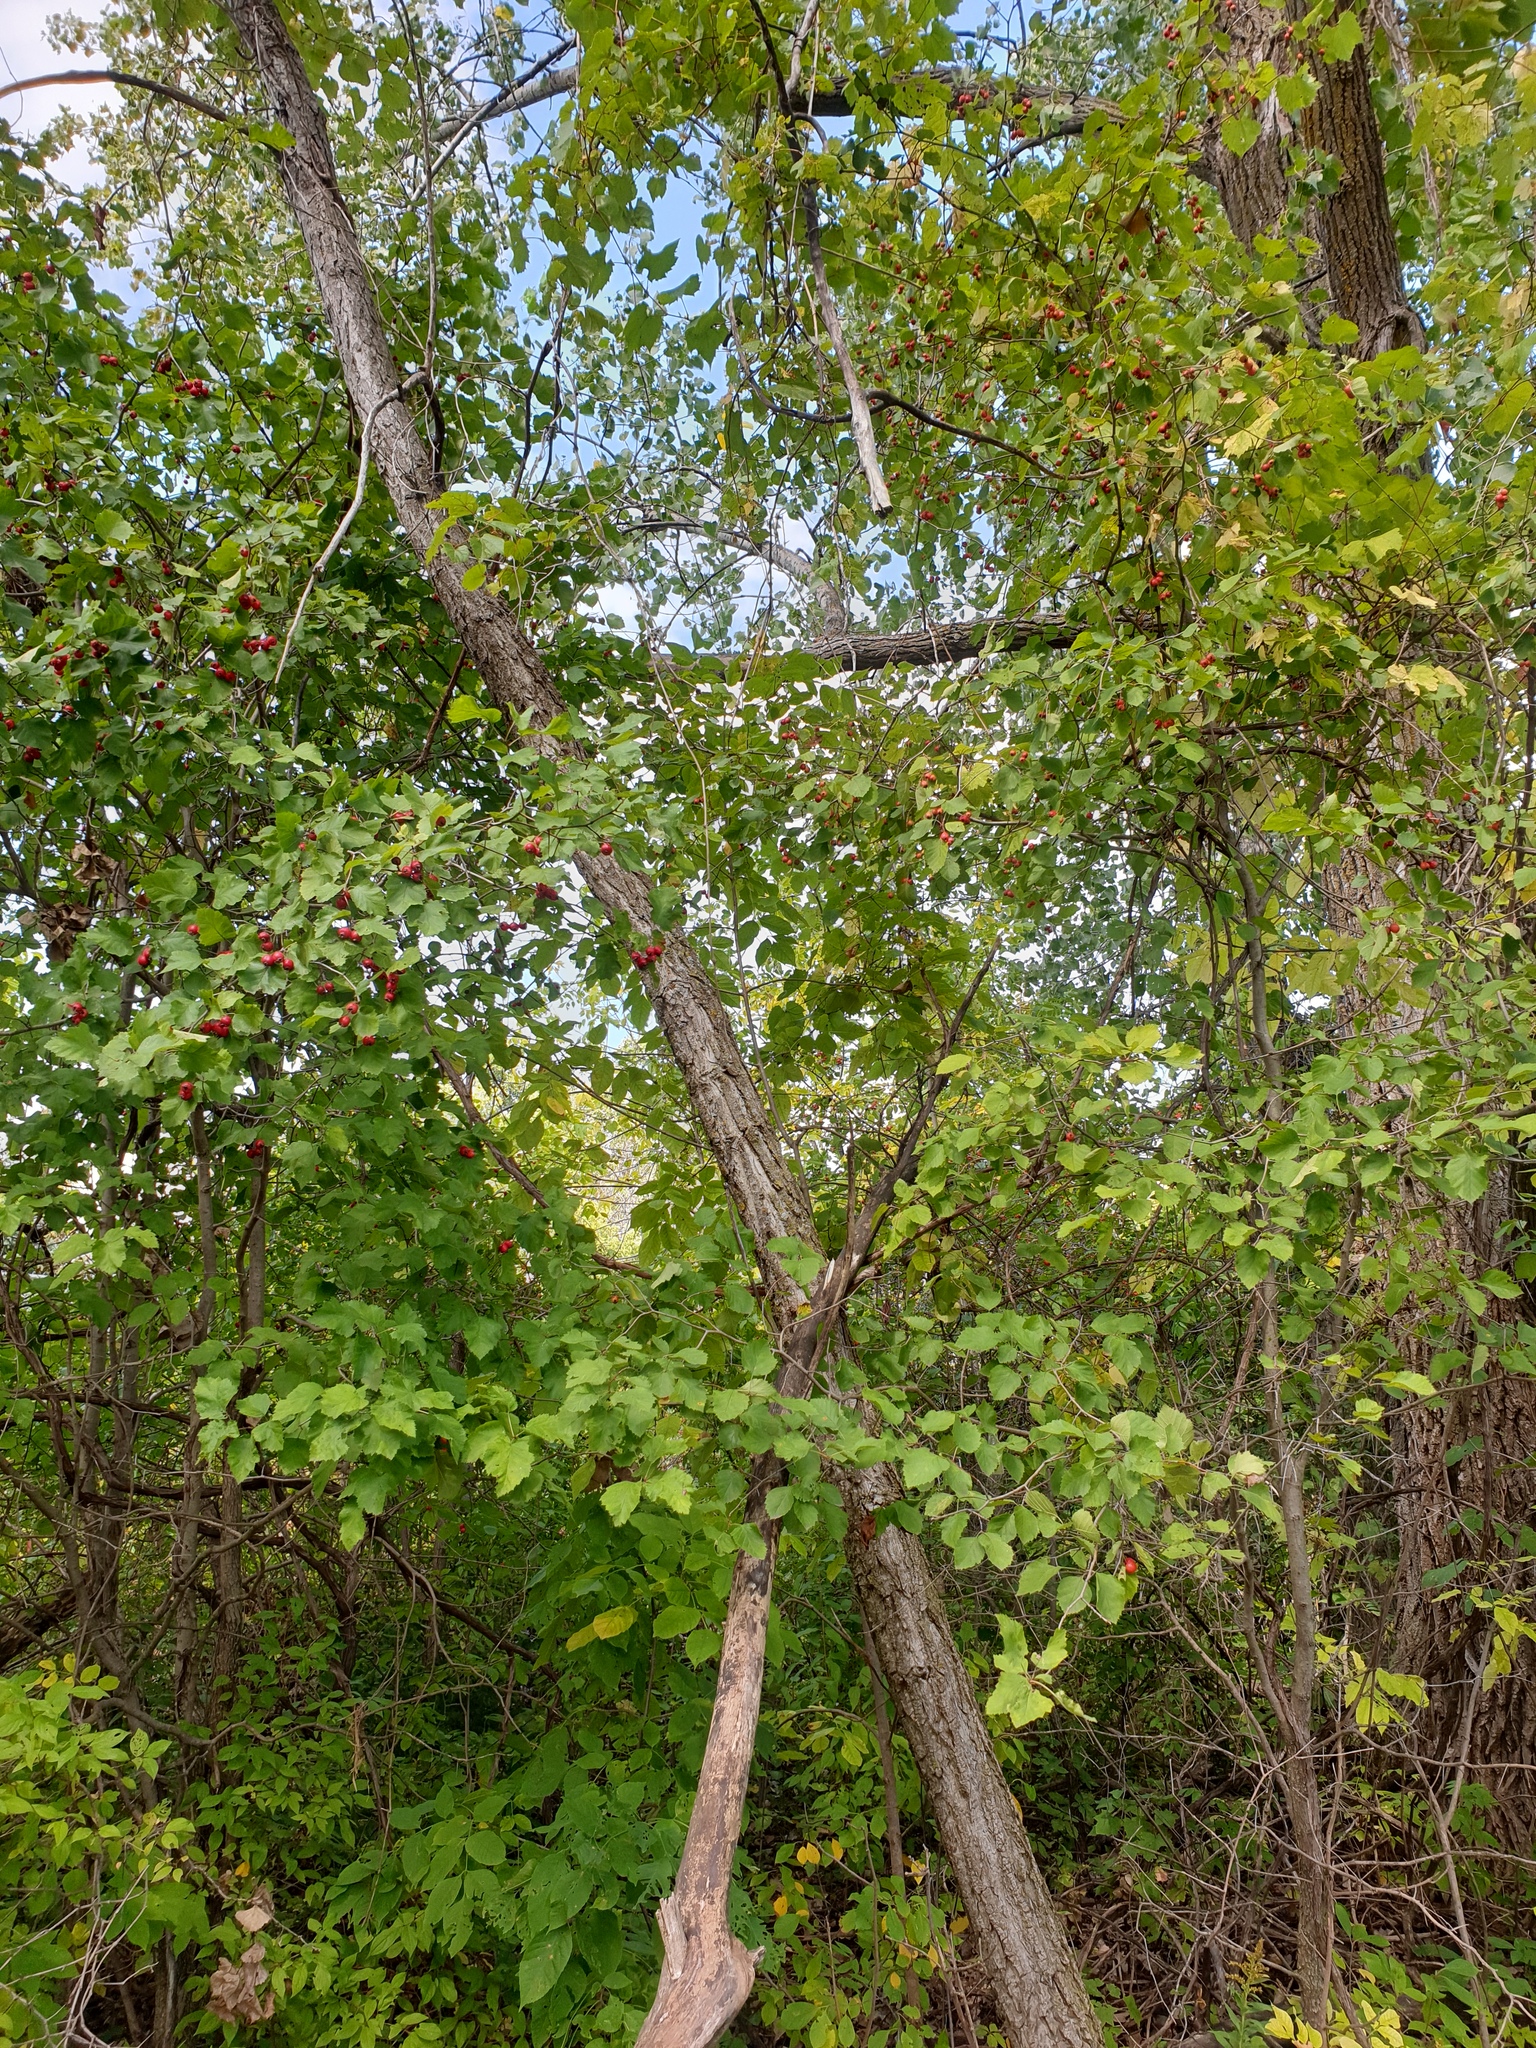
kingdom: Plantae
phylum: Tracheophyta
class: Magnoliopsida
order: Rosales
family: Rosaceae
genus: Crataegus
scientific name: Crataegus submollis
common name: Hairy cockspurthorn
